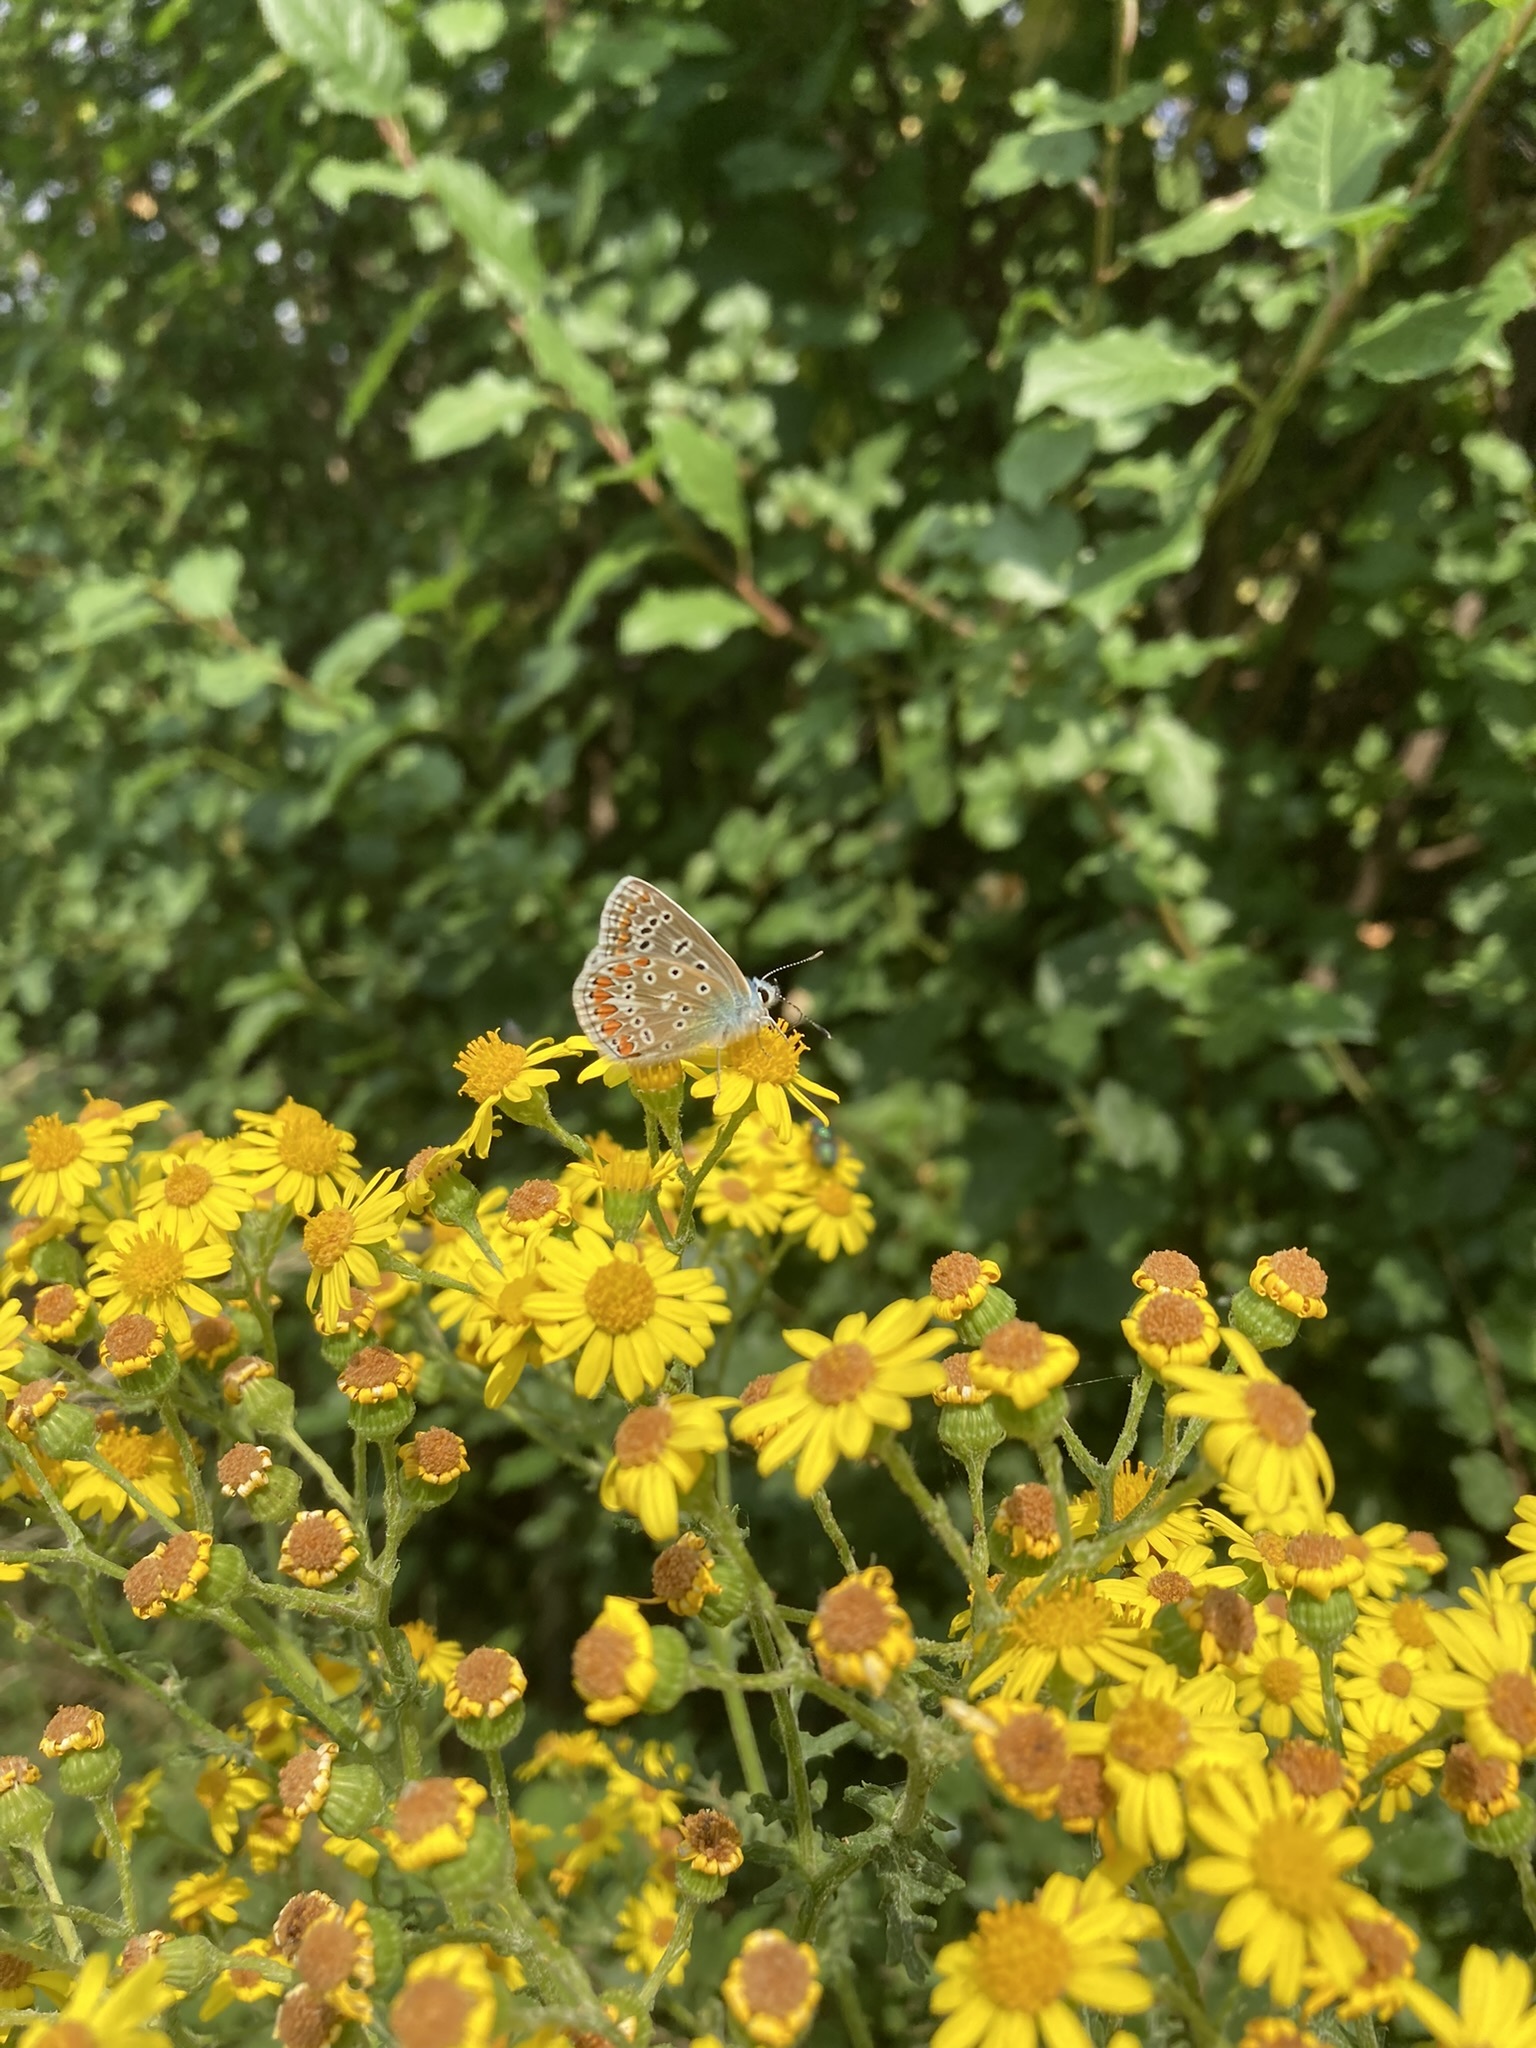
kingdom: Animalia
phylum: Arthropoda
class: Insecta
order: Lepidoptera
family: Lycaenidae
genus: Polyommatus
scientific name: Polyommatus icarus
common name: Common blue
